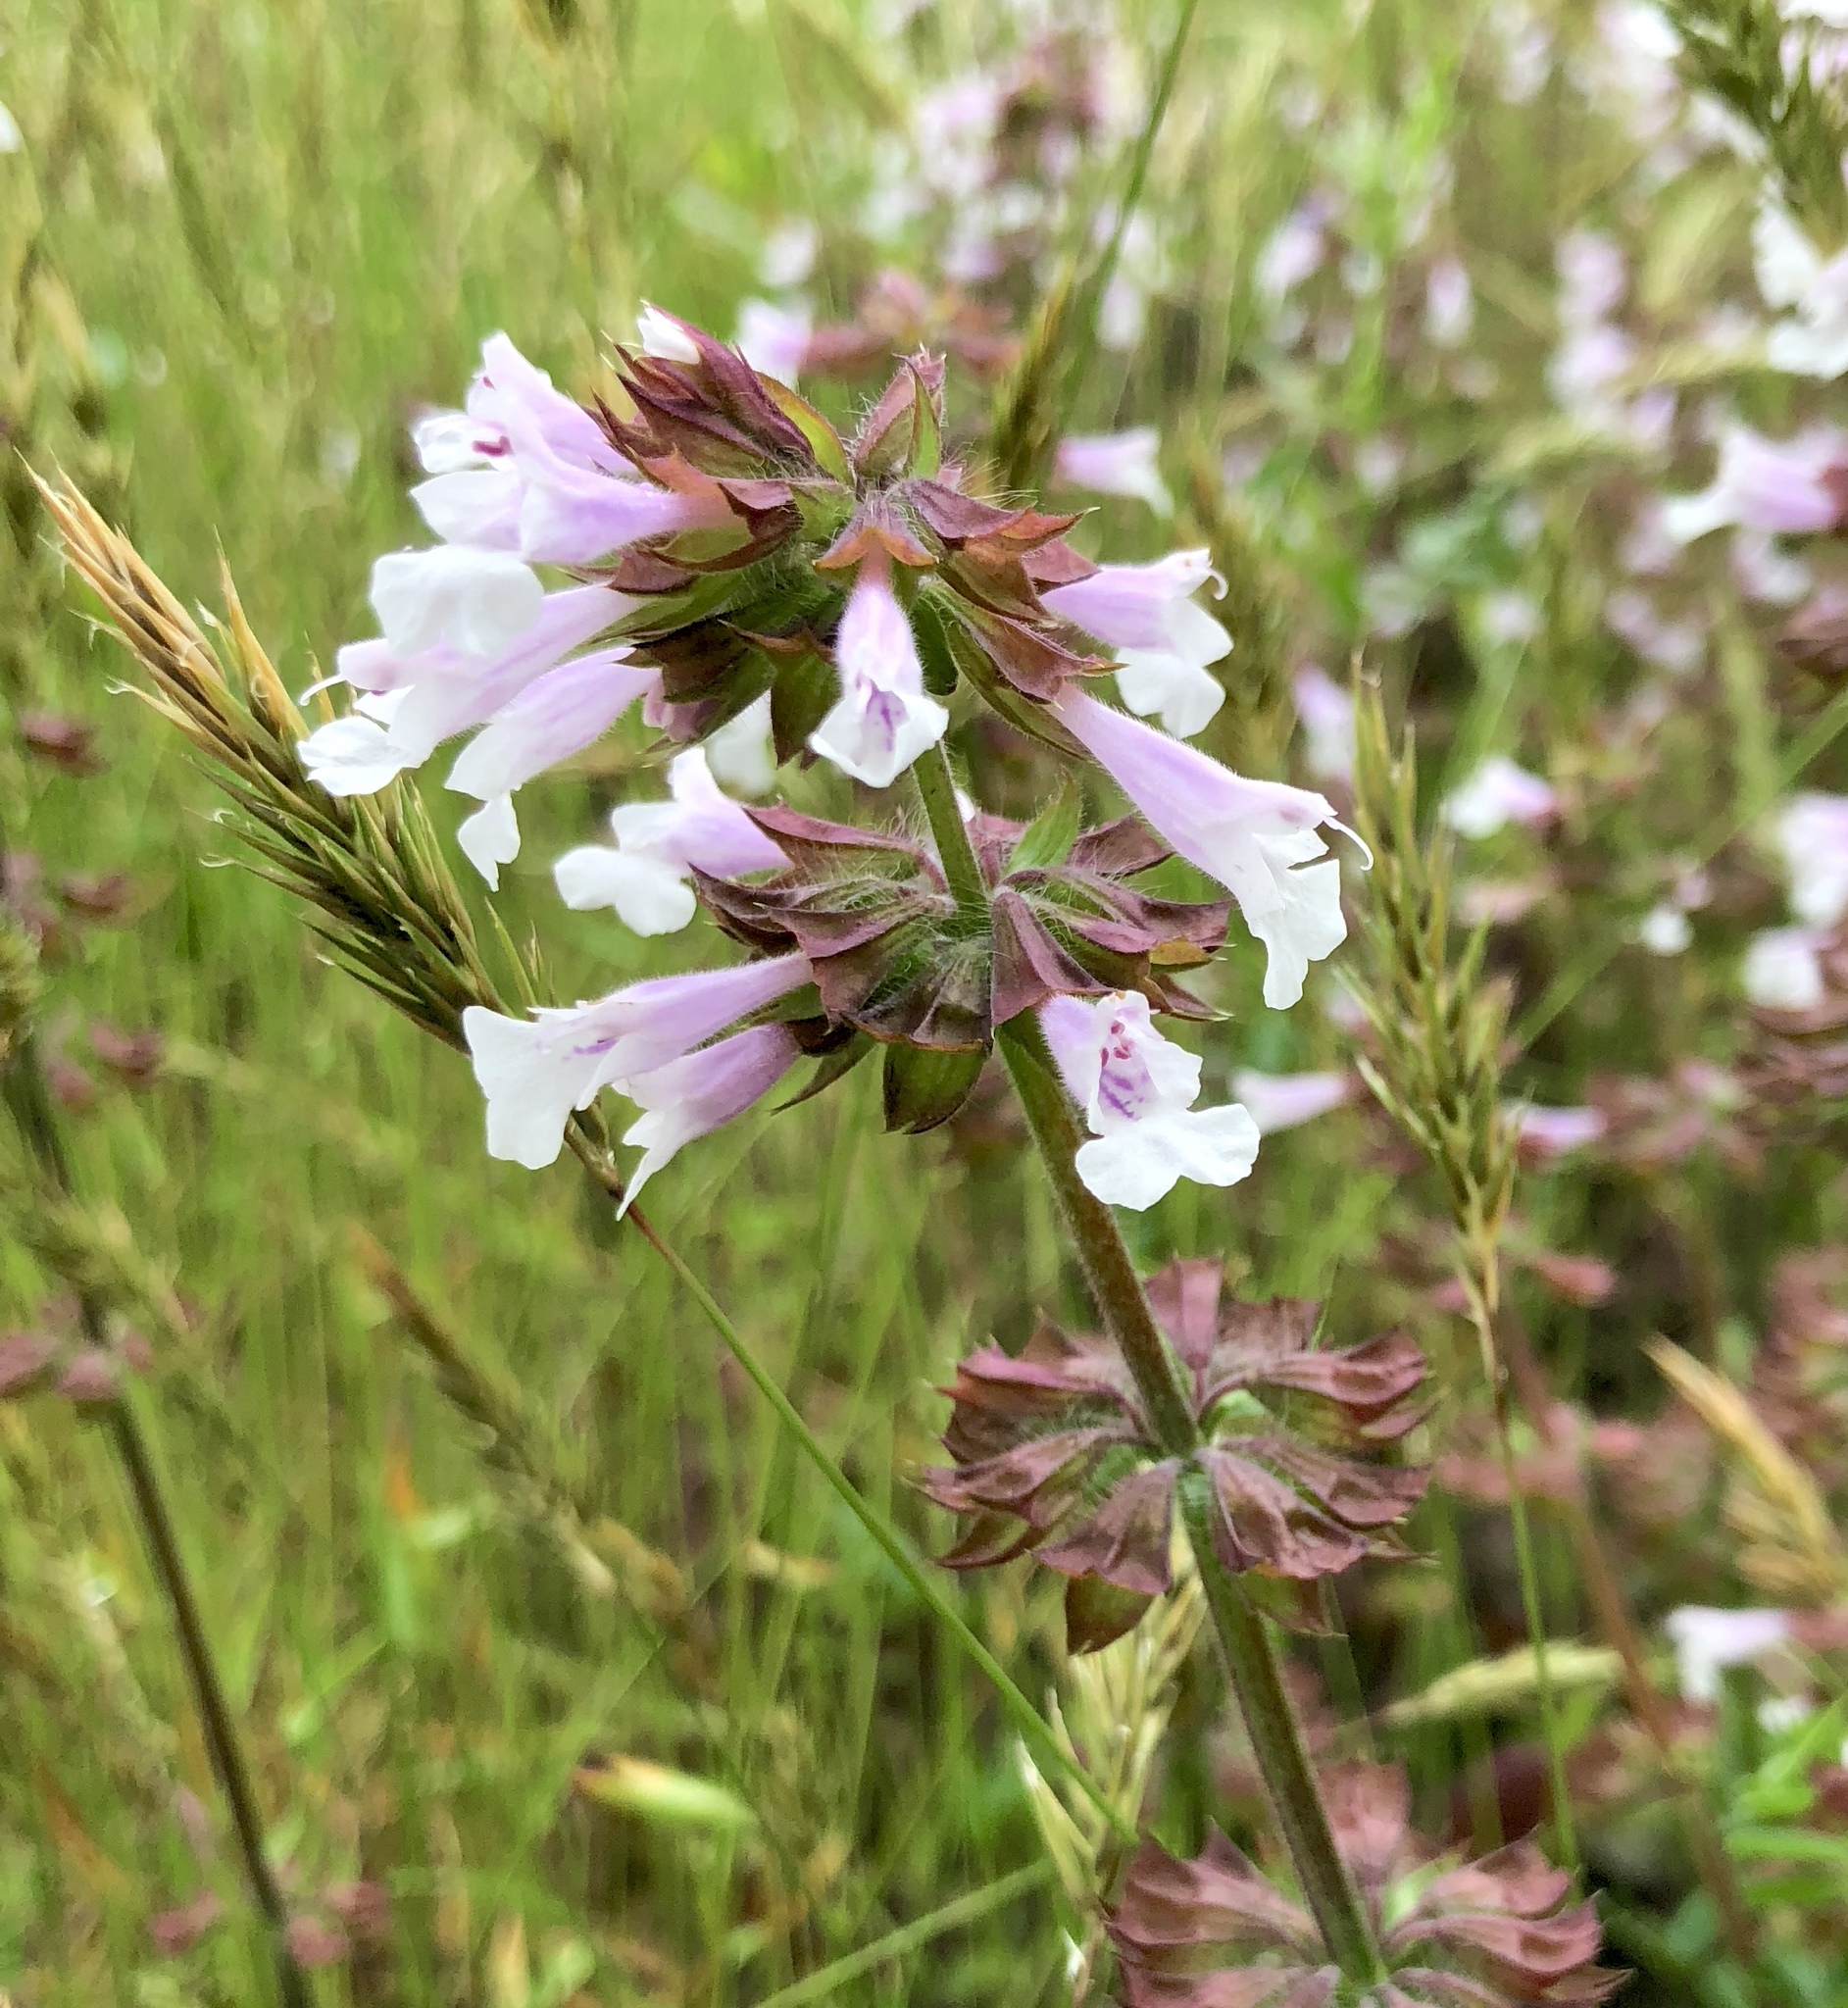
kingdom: Plantae
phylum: Tracheophyta
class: Magnoliopsida
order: Lamiales
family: Lamiaceae
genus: Salvia
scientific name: Salvia lyrata
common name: Cancerweed
